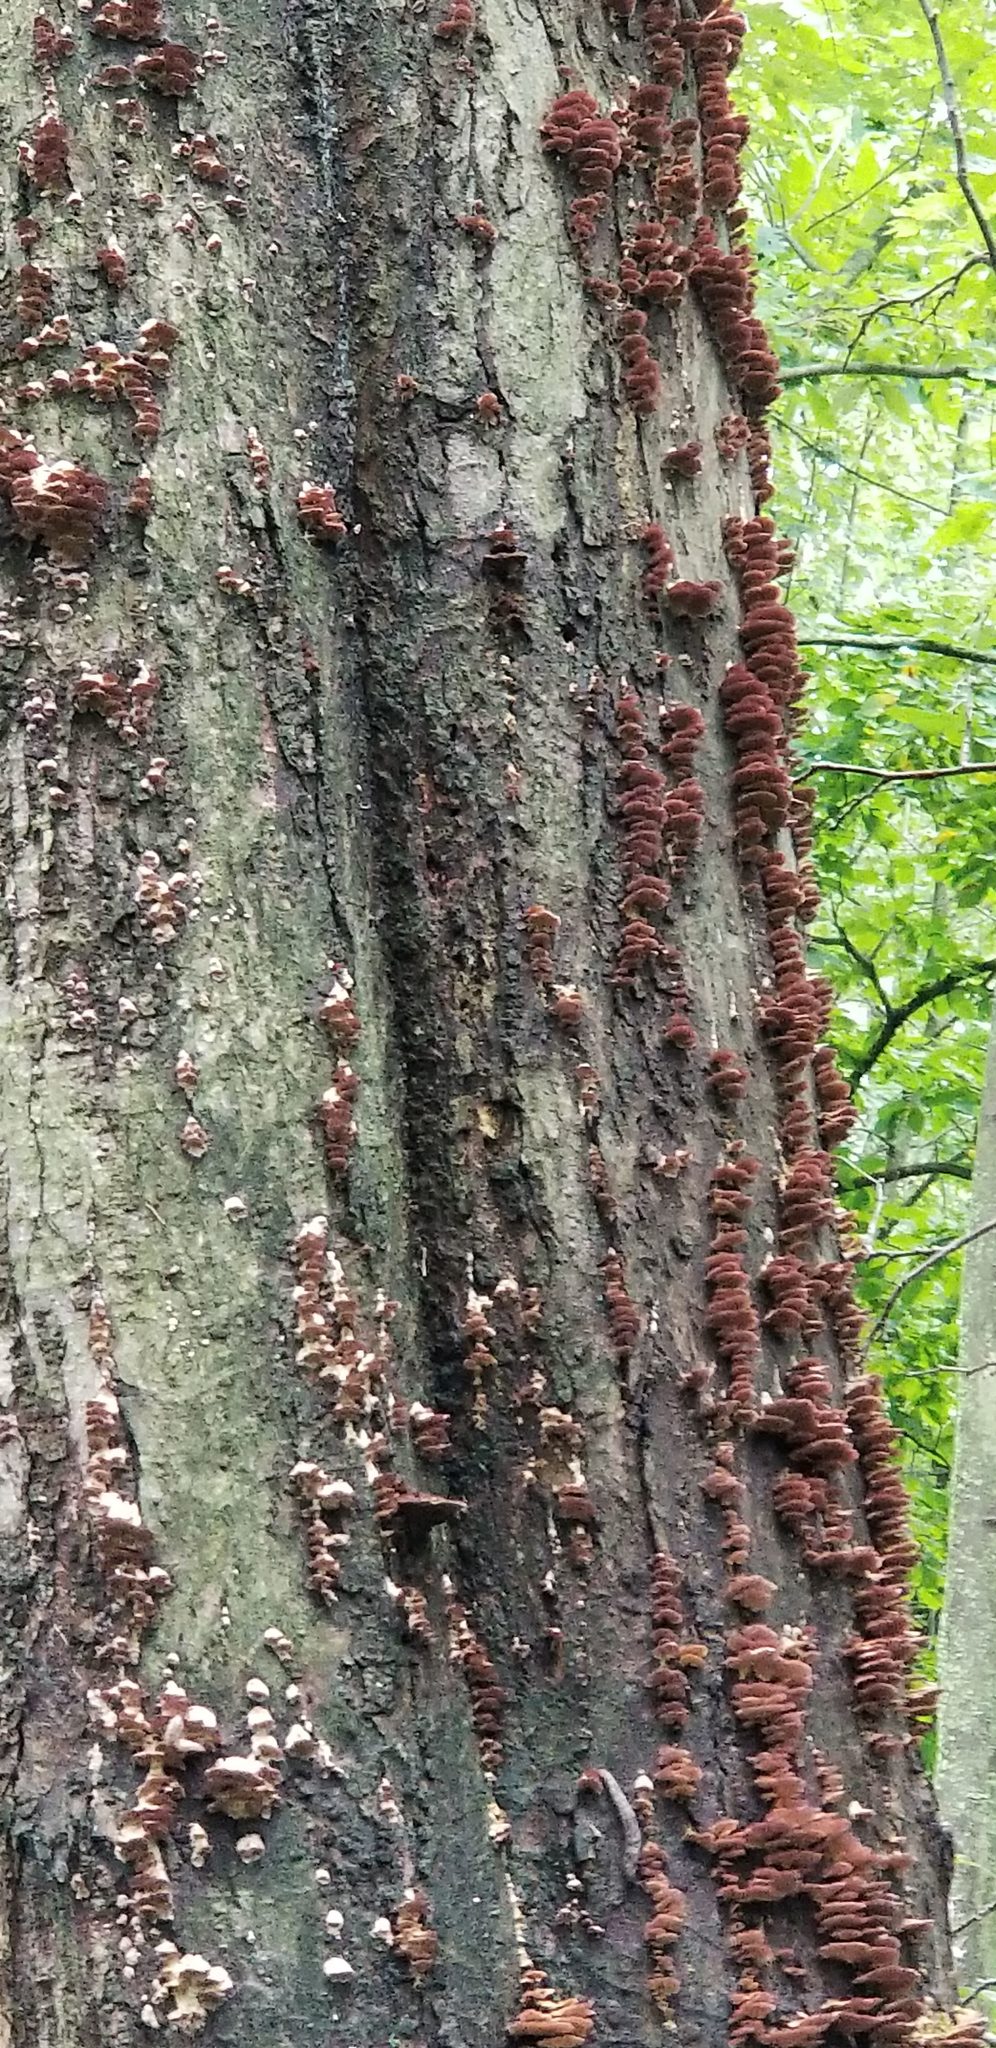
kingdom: Fungi
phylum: Basidiomycota
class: Agaricomycetes
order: Hymenochaetales
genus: Trichaptum
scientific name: Trichaptum biforme
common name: Violet-toothed polypore
